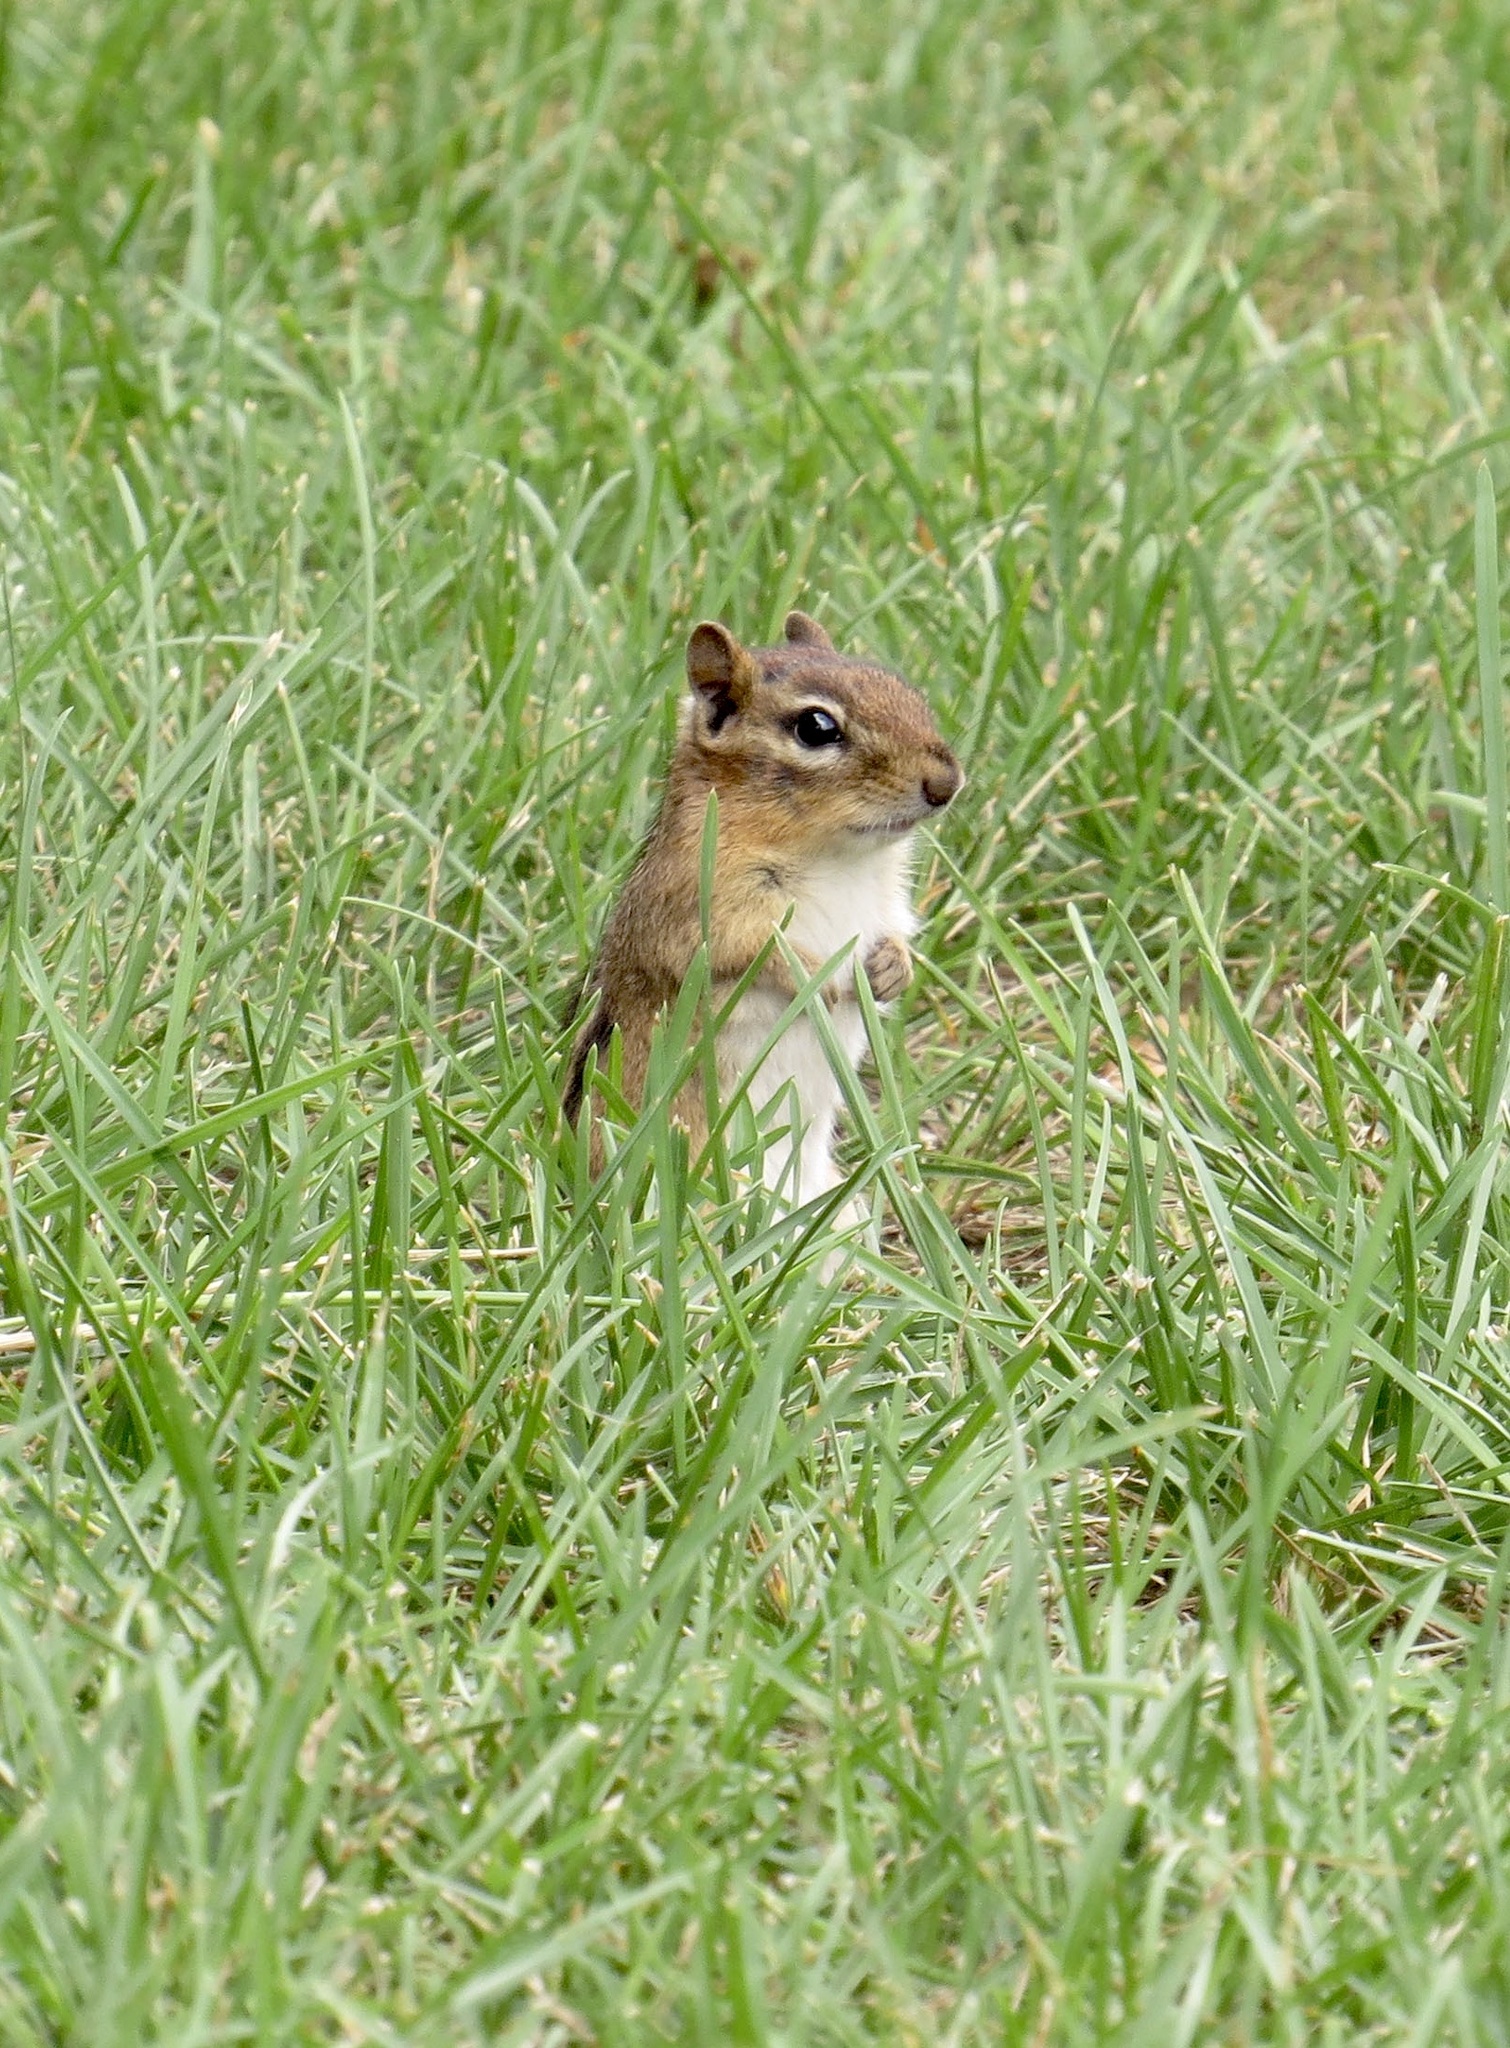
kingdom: Animalia
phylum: Chordata
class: Mammalia
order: Rodentia
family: Sciuridae
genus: Tamias
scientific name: Tamias striatus
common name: Eastern chipmunk
